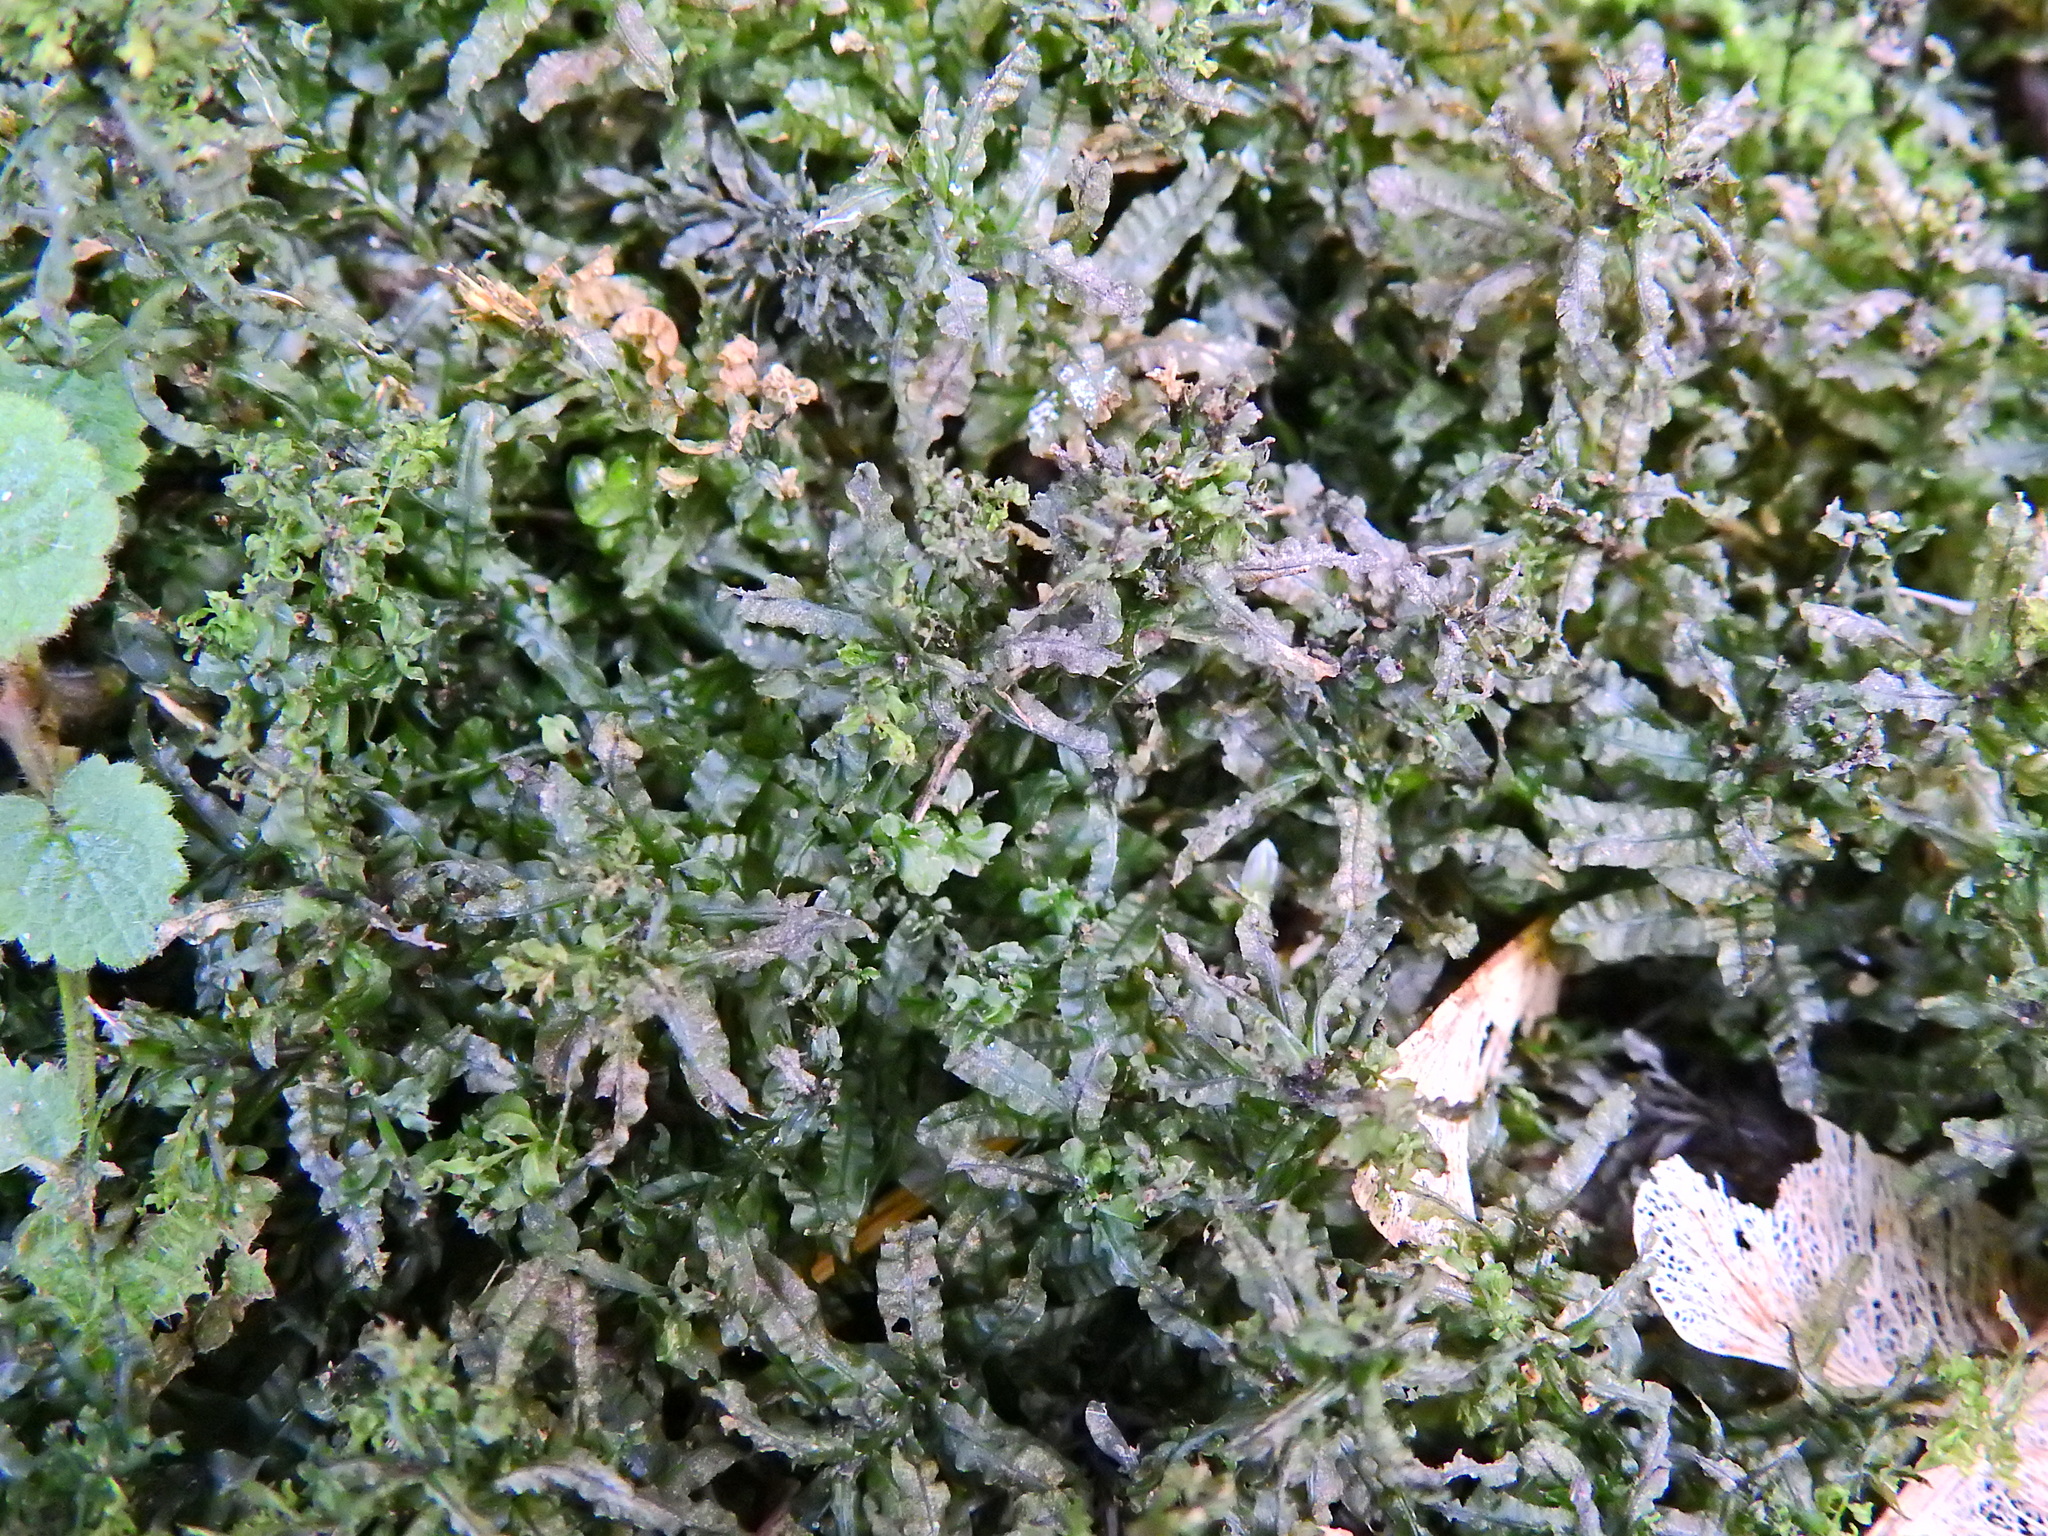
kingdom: Plantae
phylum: Bryophyta
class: Bryopsida
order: Bryales
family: Mniaceae
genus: Plagiomnium
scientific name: Plagiomnium undulatum
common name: Hart's-tongue thyme-moss
